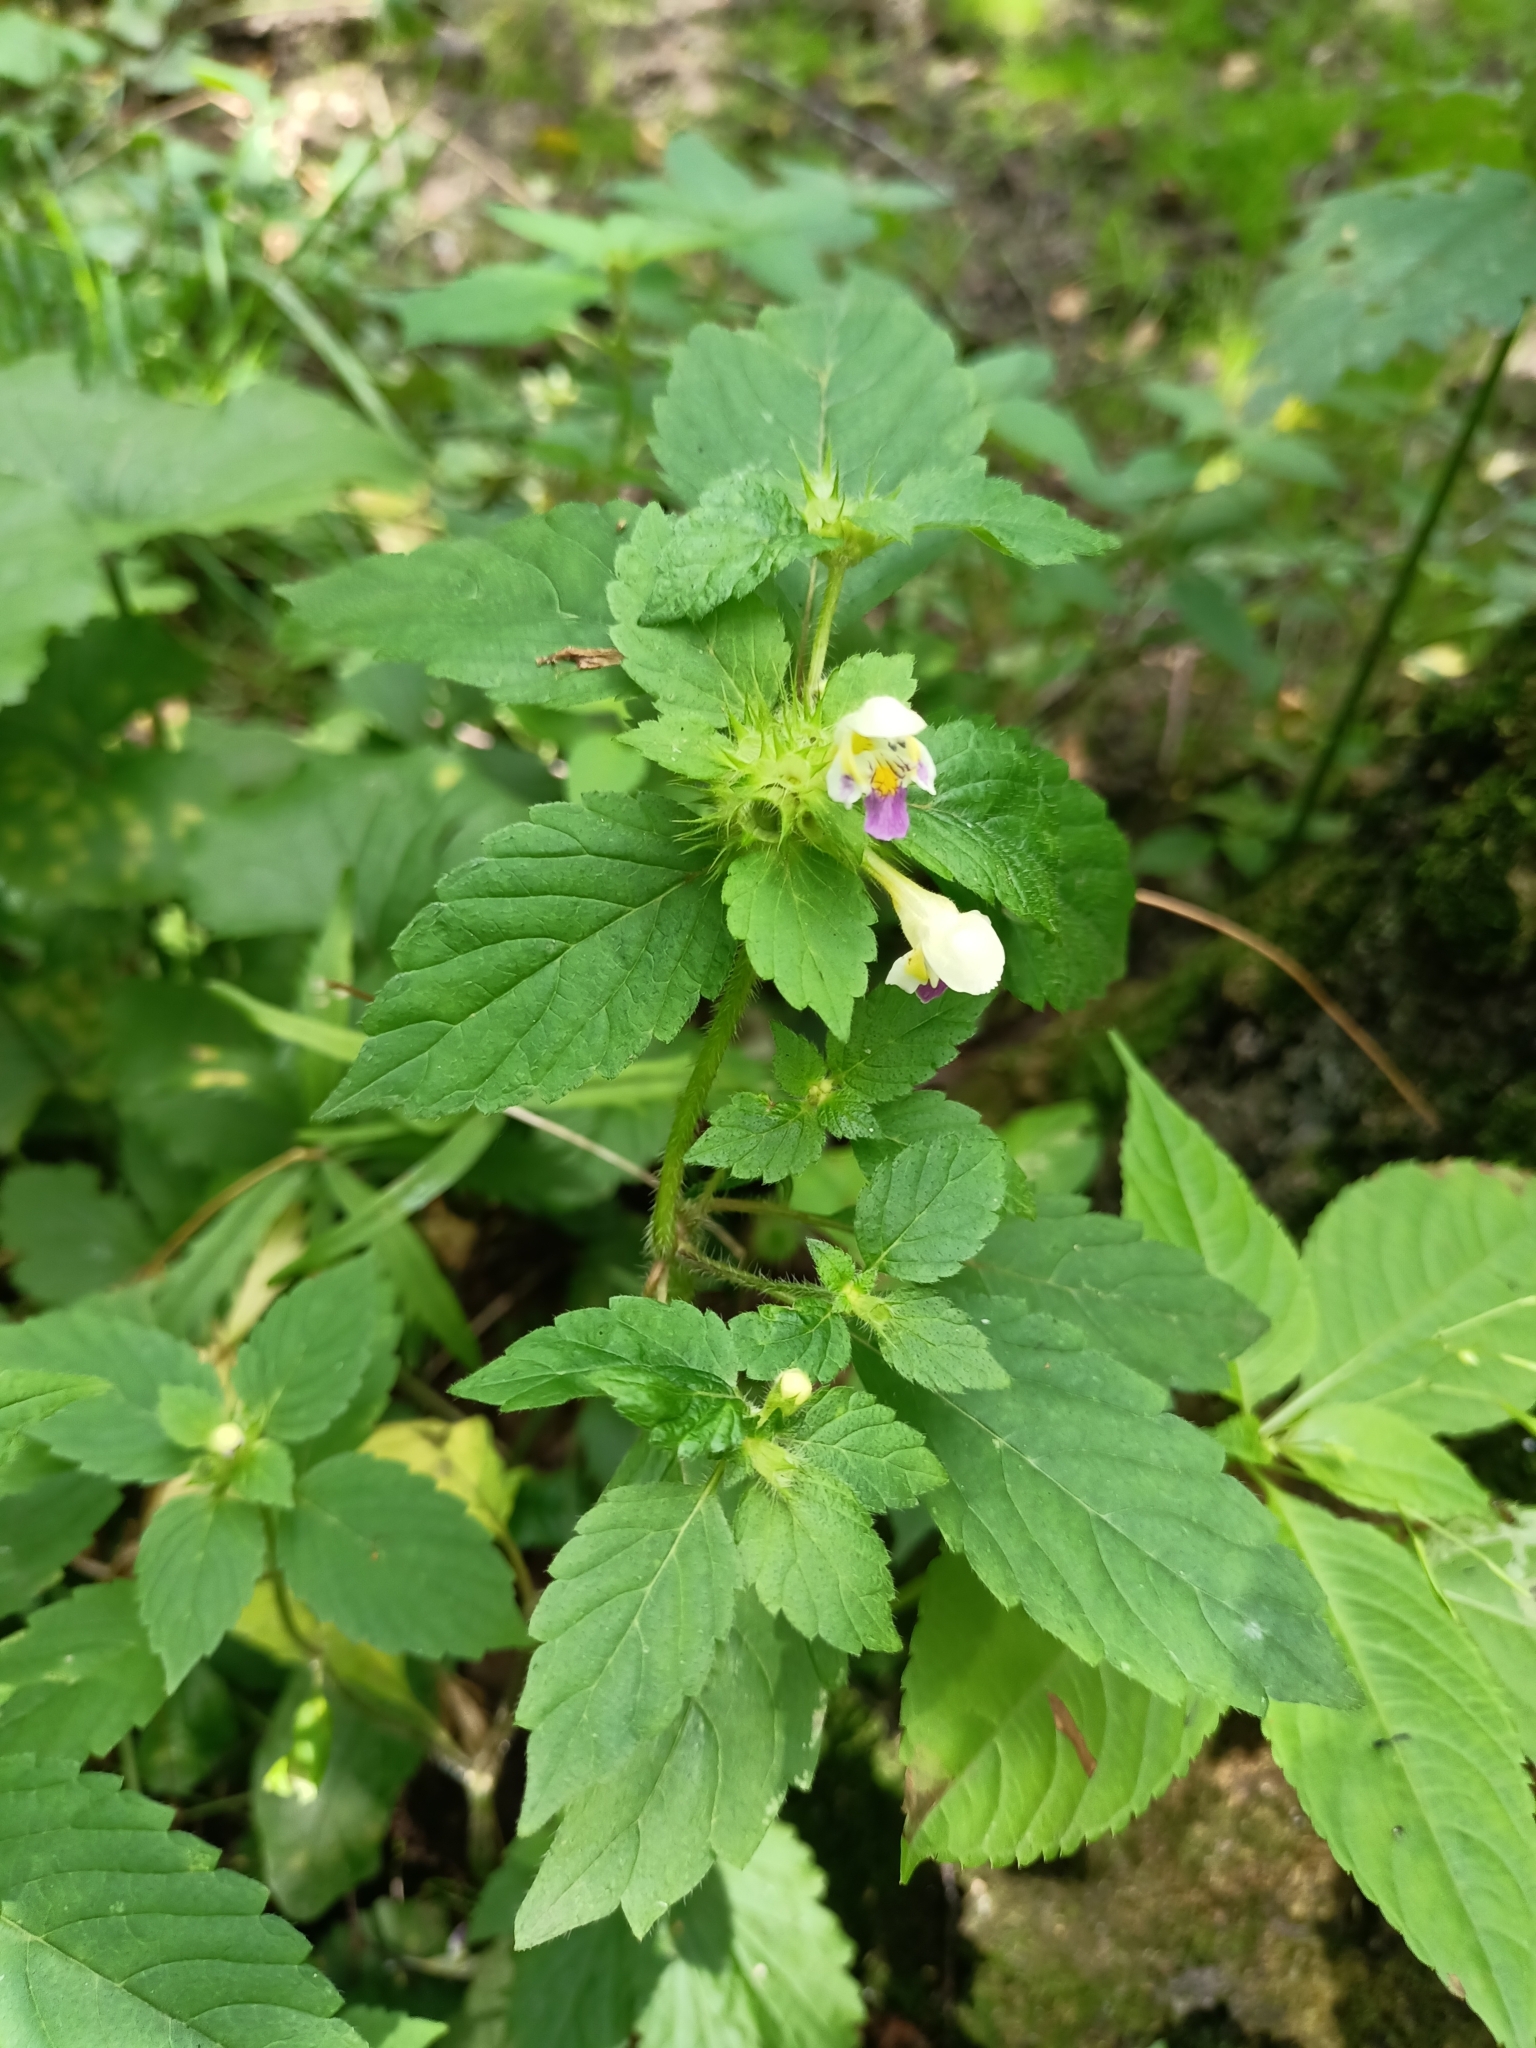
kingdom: Plantae
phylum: Tracheophyta
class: Magnoliopsida
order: Lamiales
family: Lamiaceae
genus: Galeopsis
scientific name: Galeopsis speciosa
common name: Large-flowered hemp-nettle
